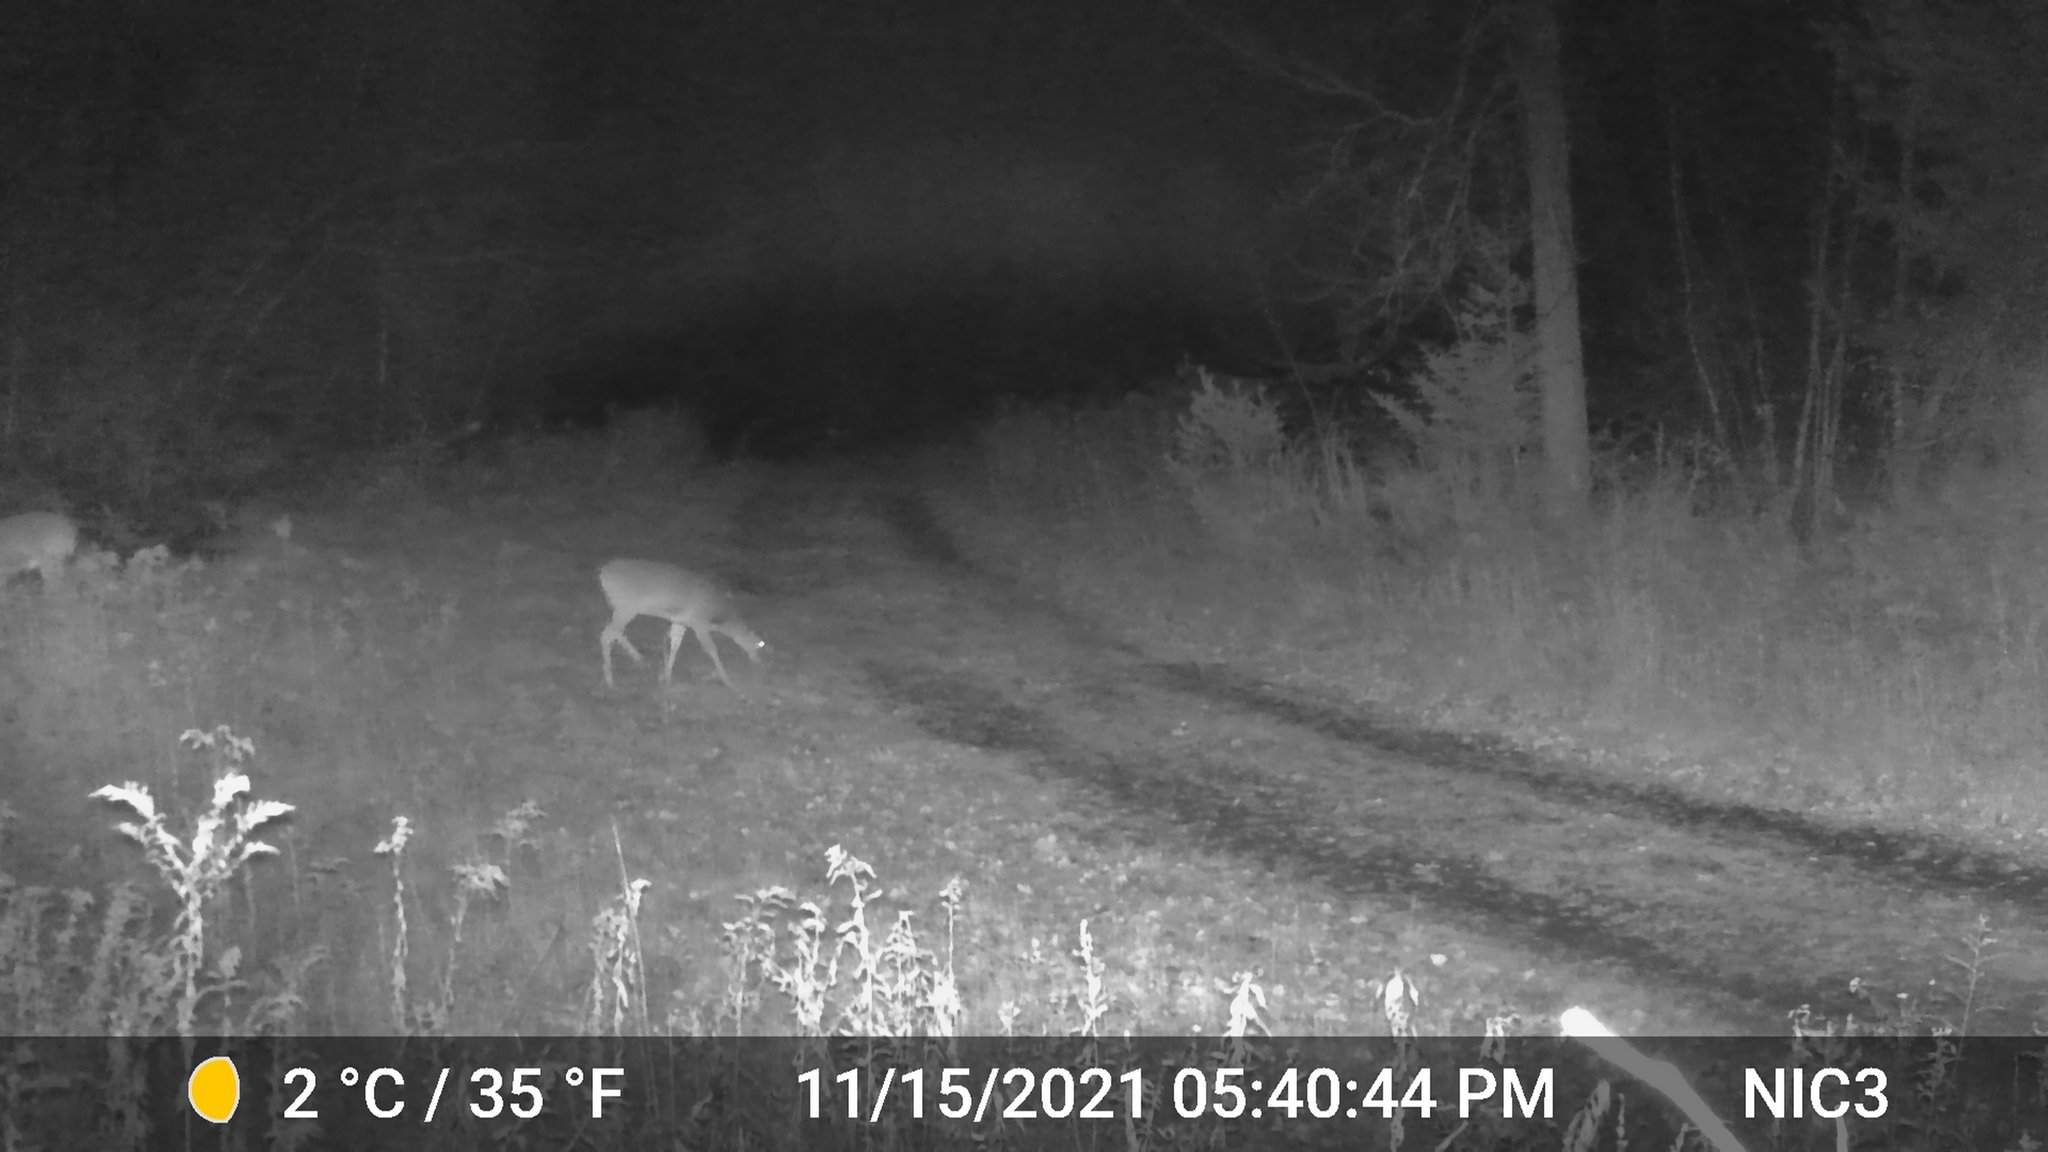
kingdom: Animalia
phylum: Chordata
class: Mammalia
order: Artiodactyla
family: Cervidae
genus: Odocoileus
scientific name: Odocoileus virginianus
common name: White-tailed deer
